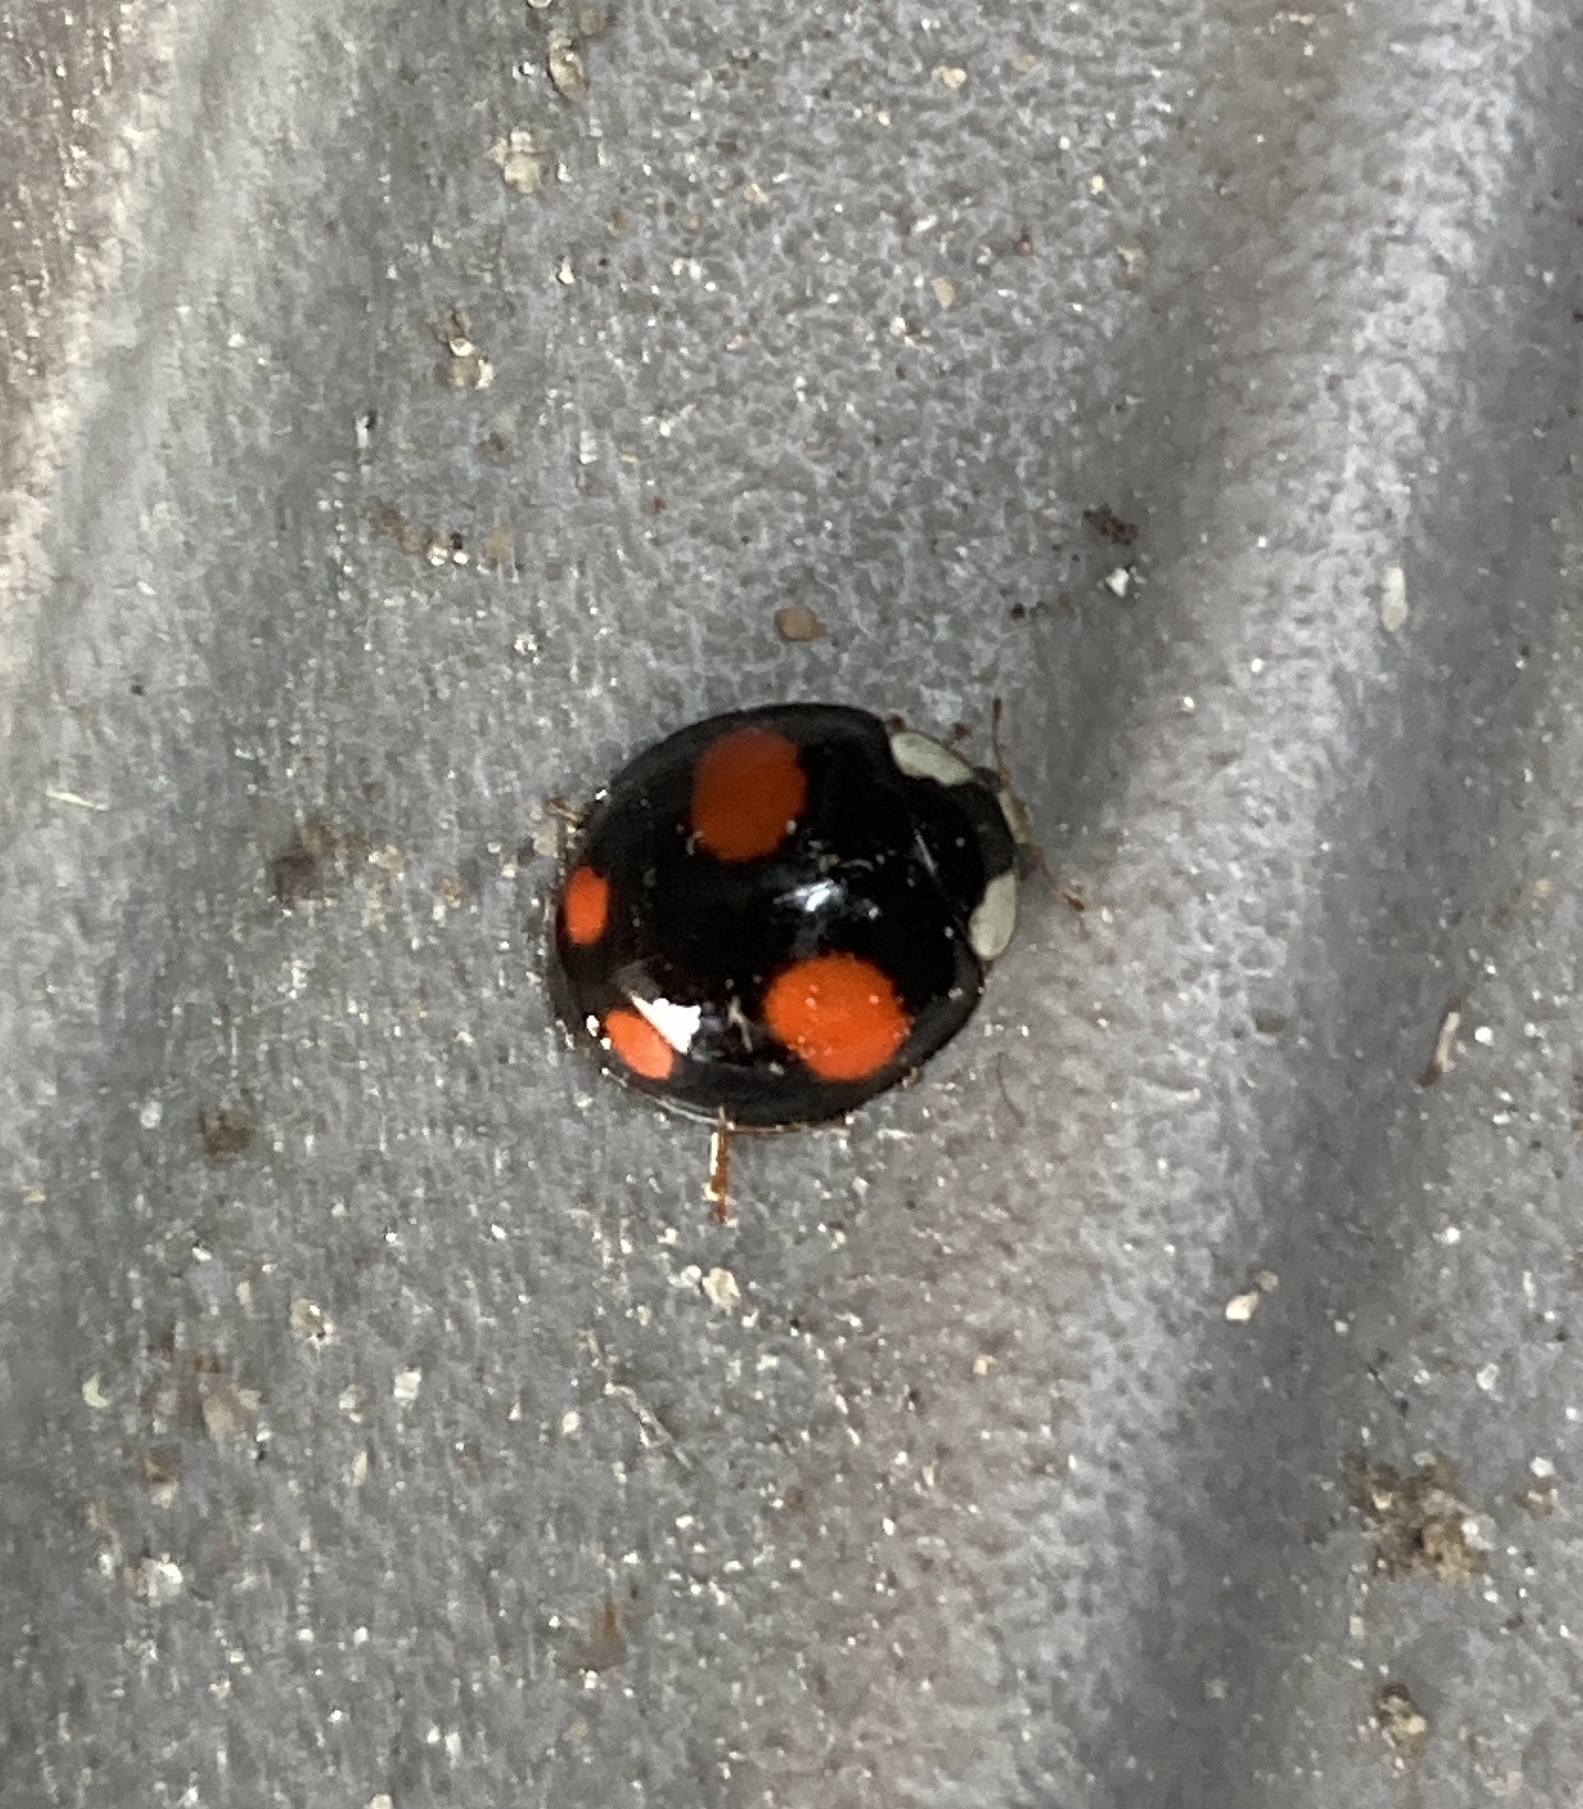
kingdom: Animalia
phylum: Arthropoda
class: Insecta
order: Coleoptera
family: Coccinellidae
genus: Harmonia
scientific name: Harmonia axyridis
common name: Harlequin ladybird
